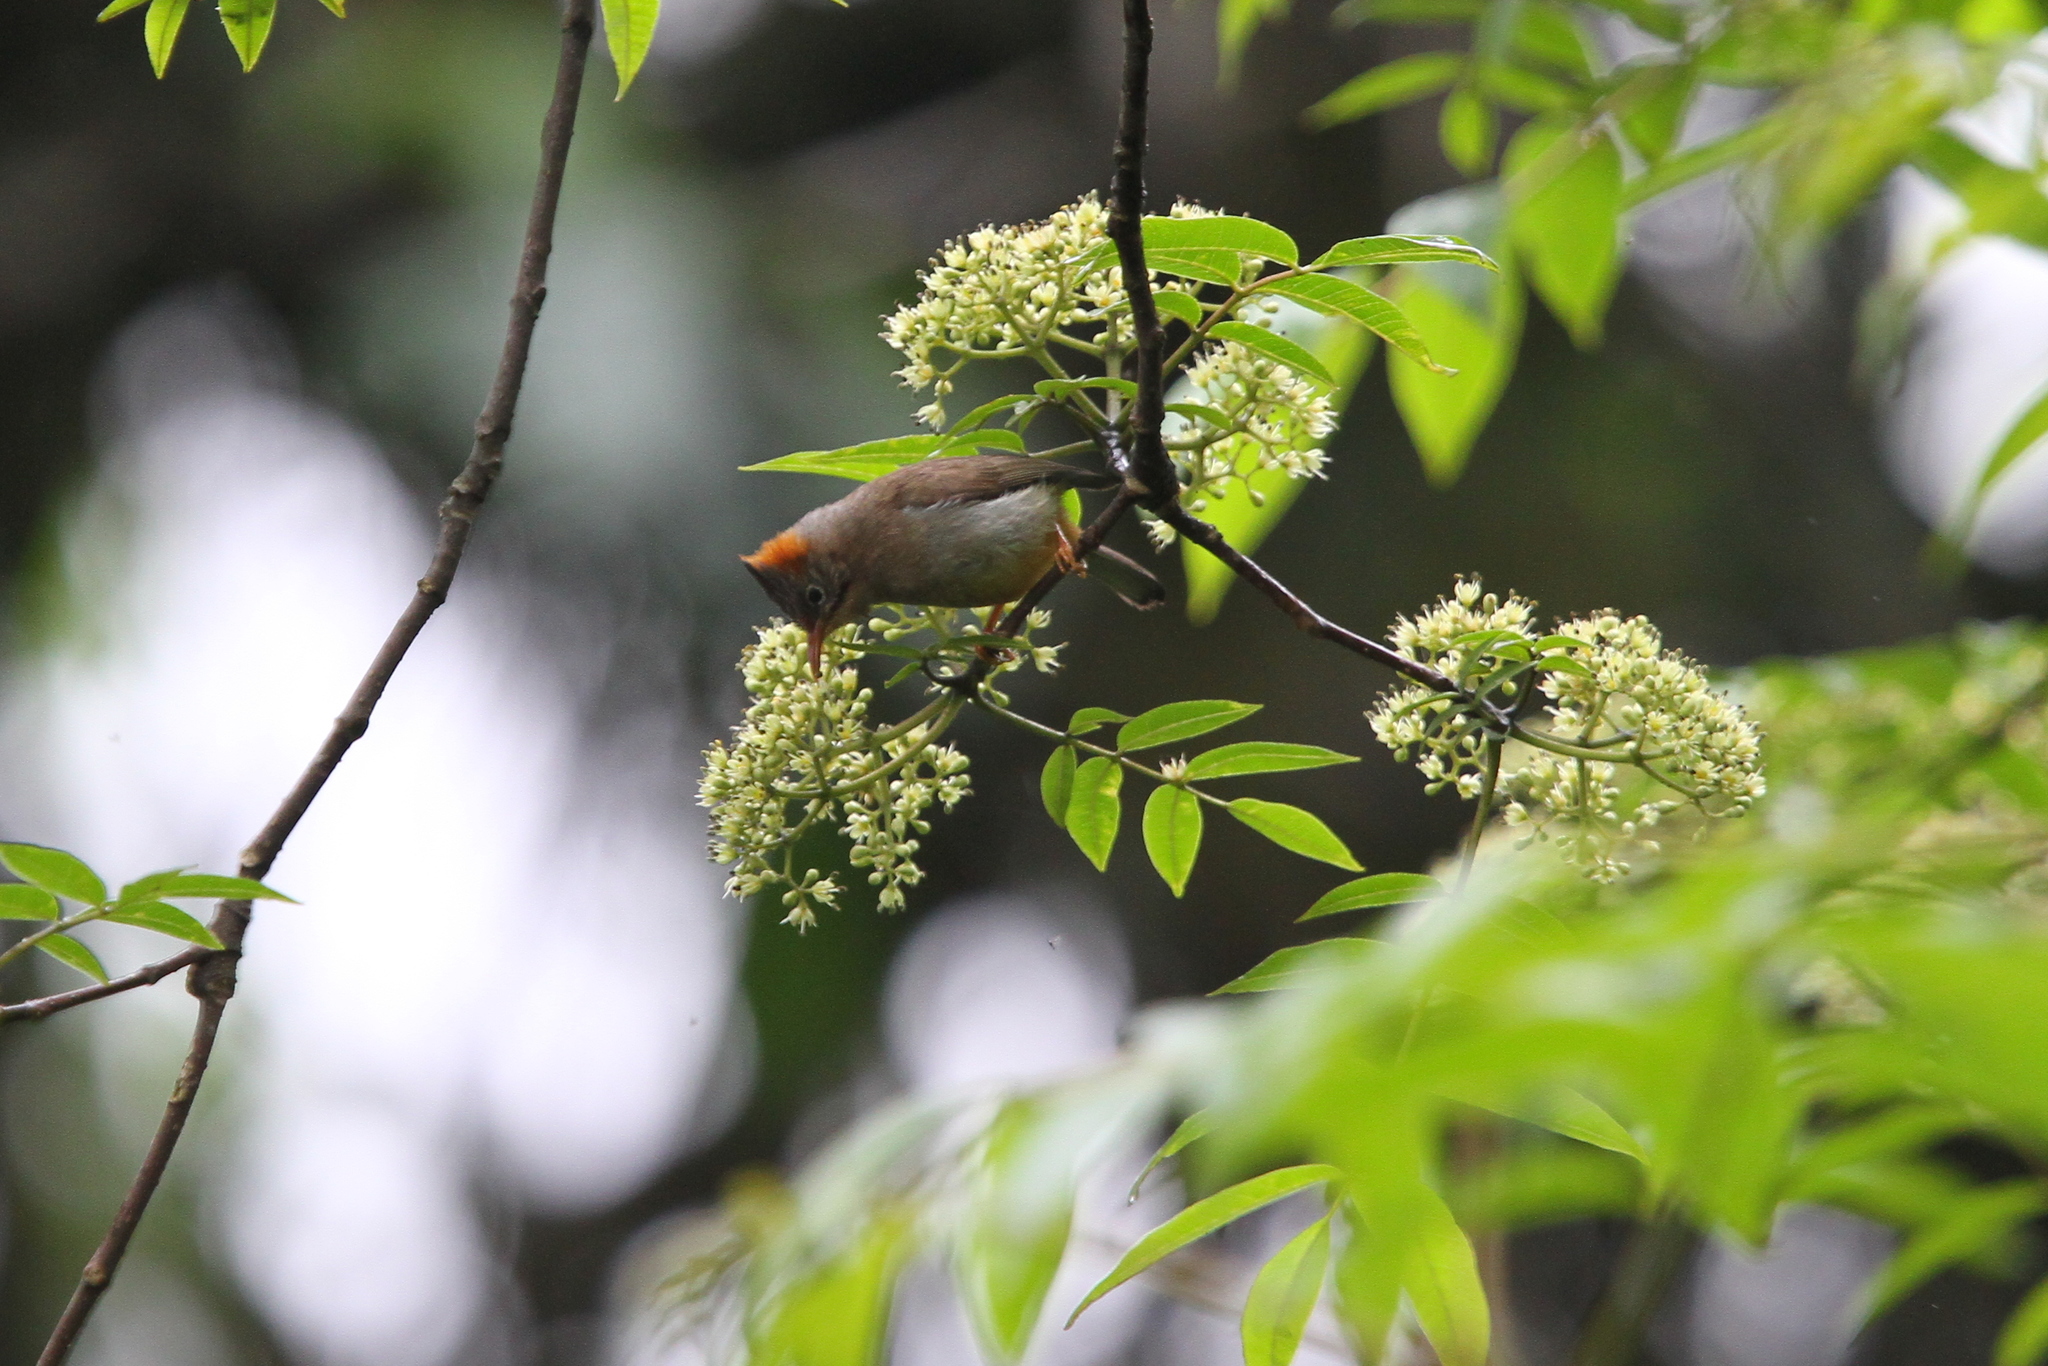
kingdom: Animalia
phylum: Chordata
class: Aves
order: Passeriformes
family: Zosteropidae
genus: Yuhina
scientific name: Yuhina occipitalis
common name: Rufous-vented yuhina
